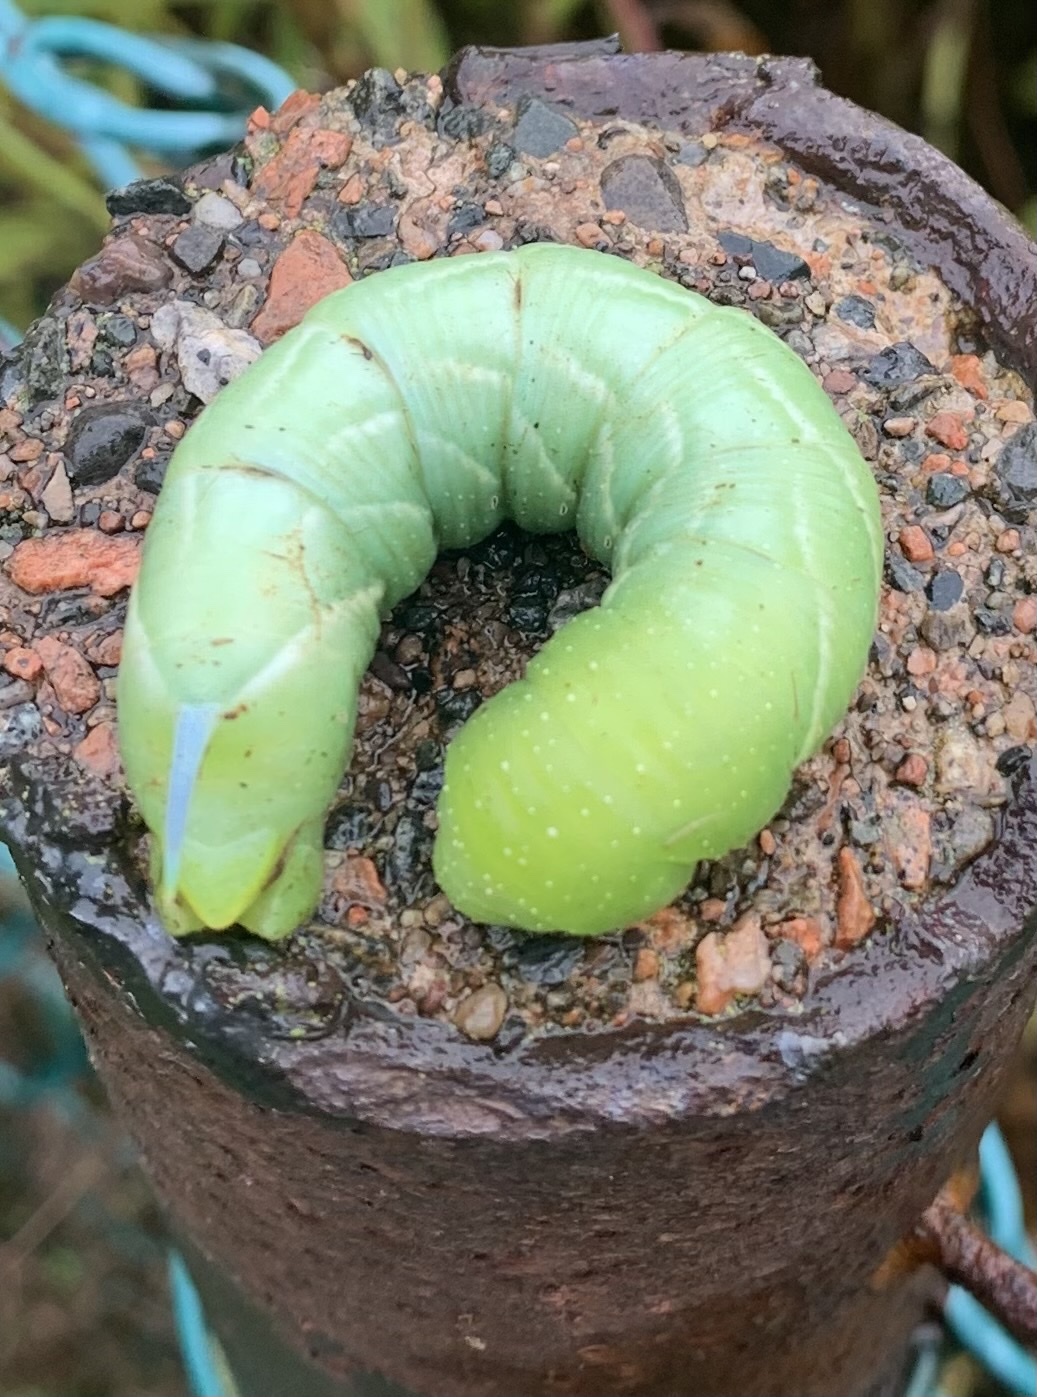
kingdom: Animalia
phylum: Arthropoda
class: Insecta
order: Lepidoptera
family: Sphingidae
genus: Sphinx
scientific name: Sphinx chersis
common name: Great ash sphinx
